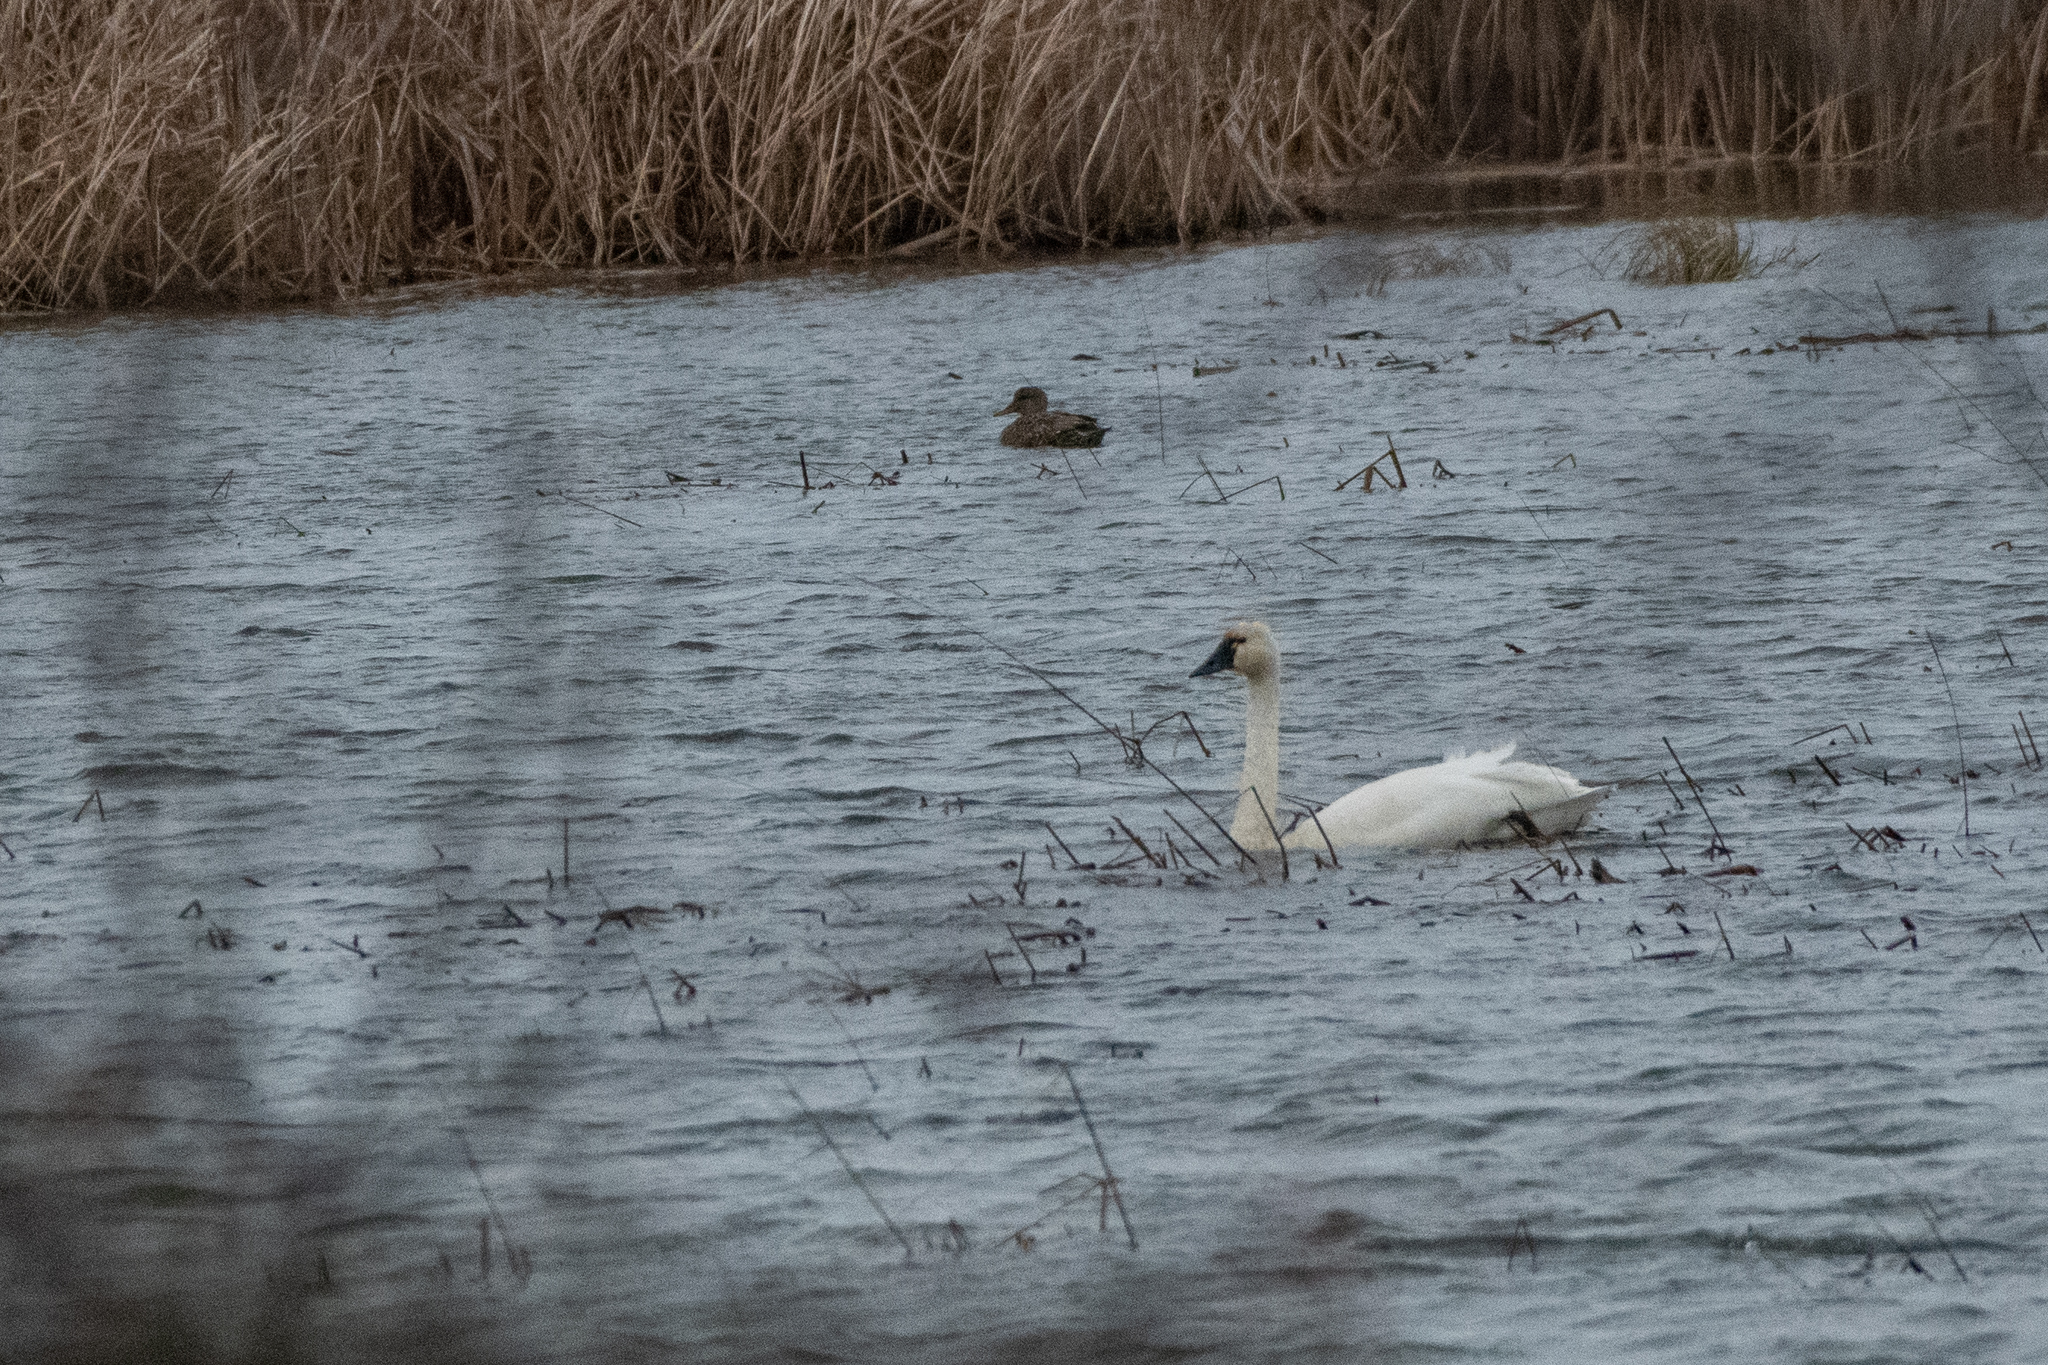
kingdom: Animalia
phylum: Chordata
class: Aves
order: Anseriformes
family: Anatidae
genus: Cygnus
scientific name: Cygnus columbianus
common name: Tundra swan
